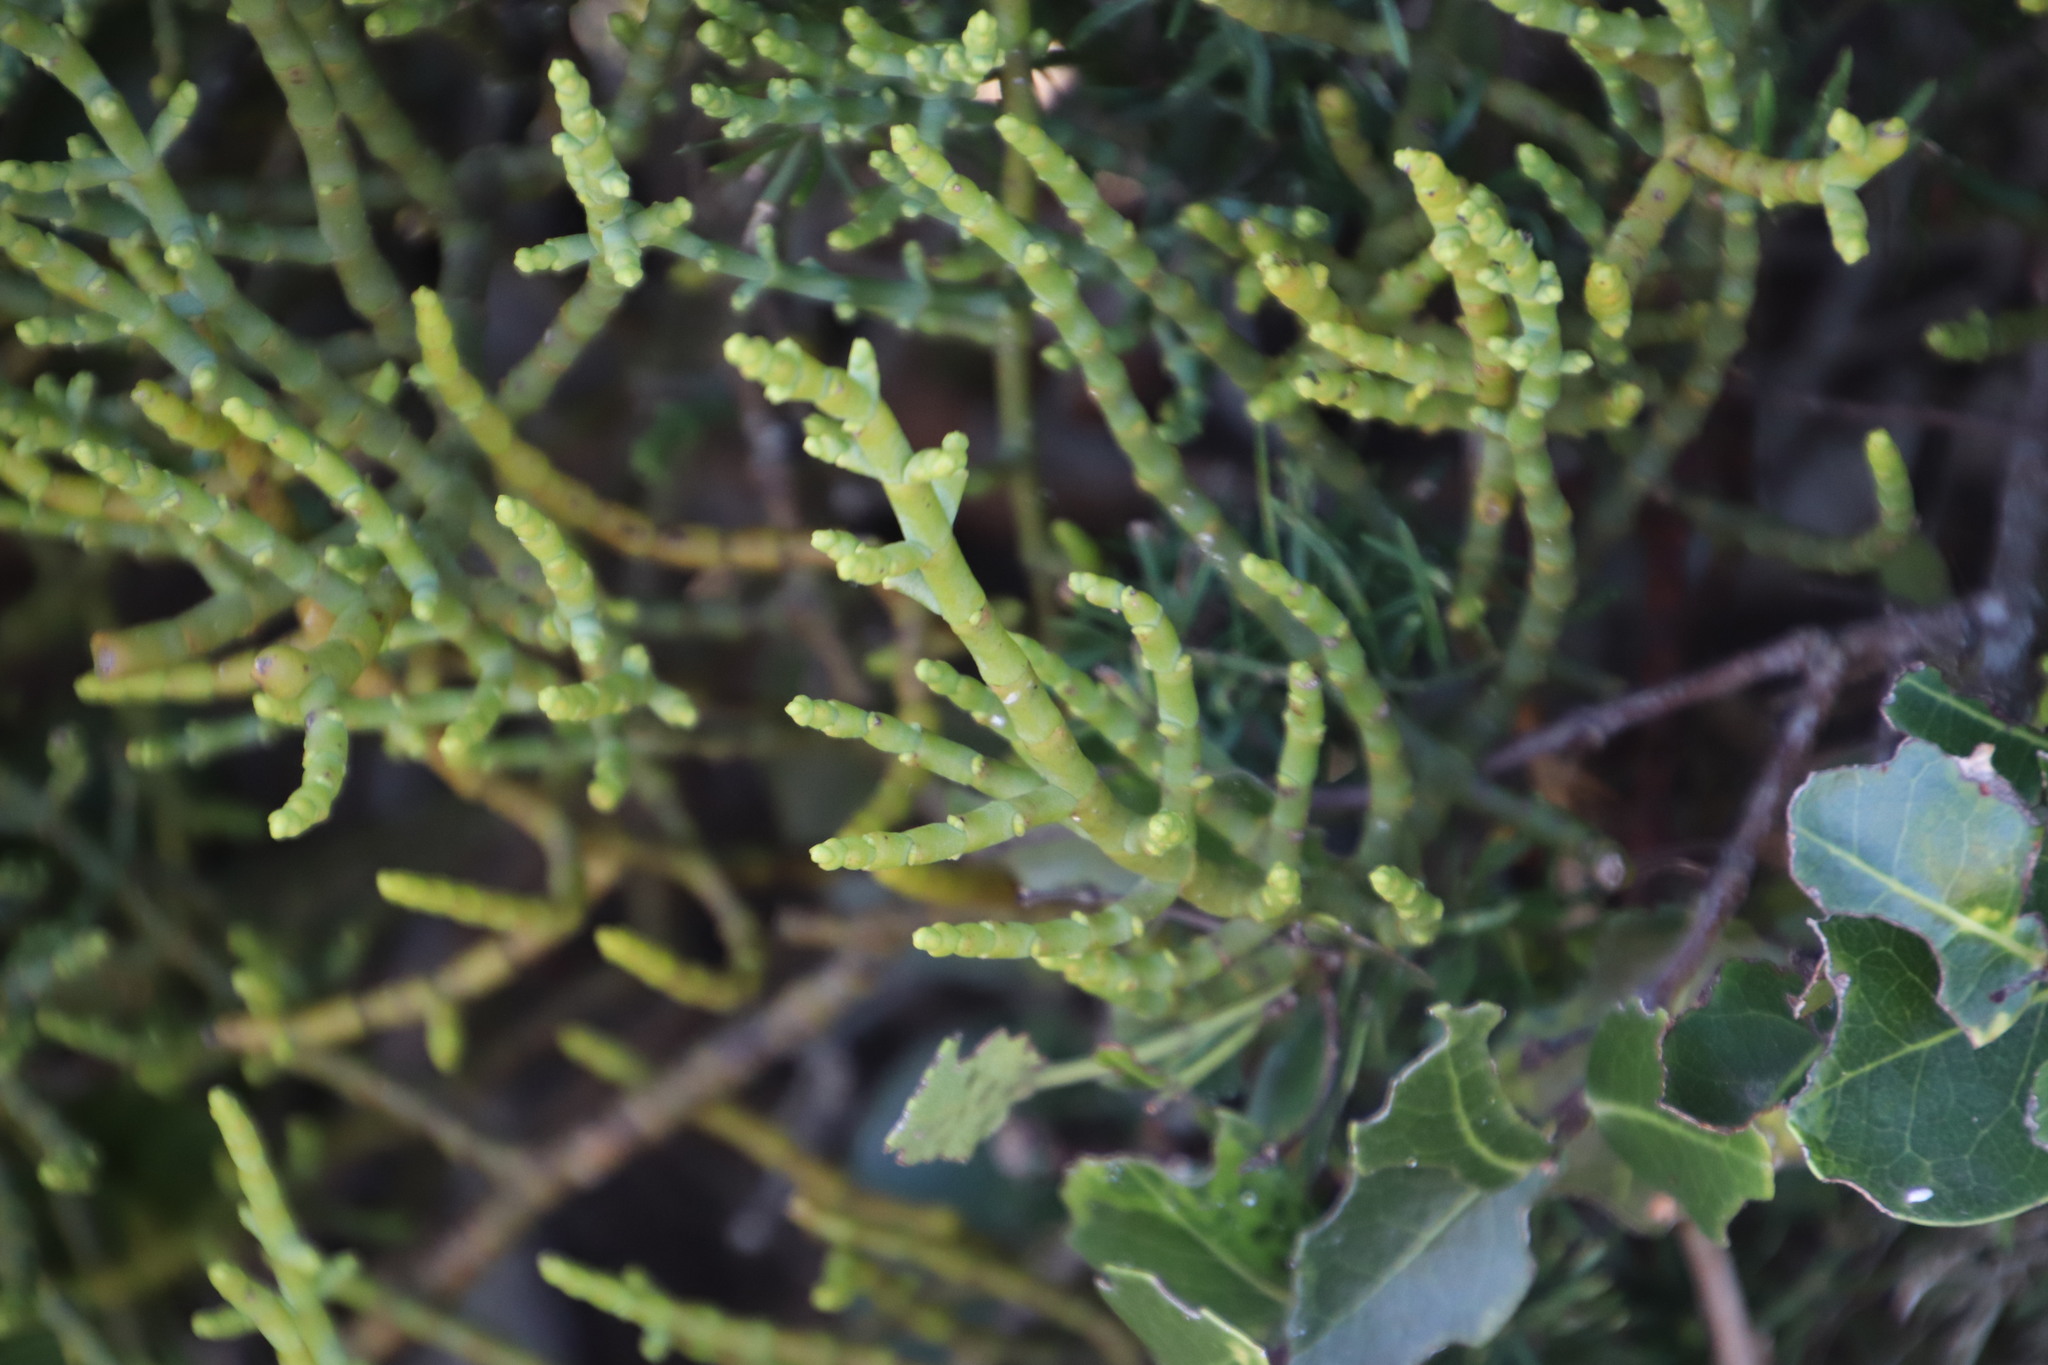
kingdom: Plantae
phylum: Tracheophyta
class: Magnoliopsida
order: Santalales
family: Viscaceae
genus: Viscum
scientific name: Viscum capense
